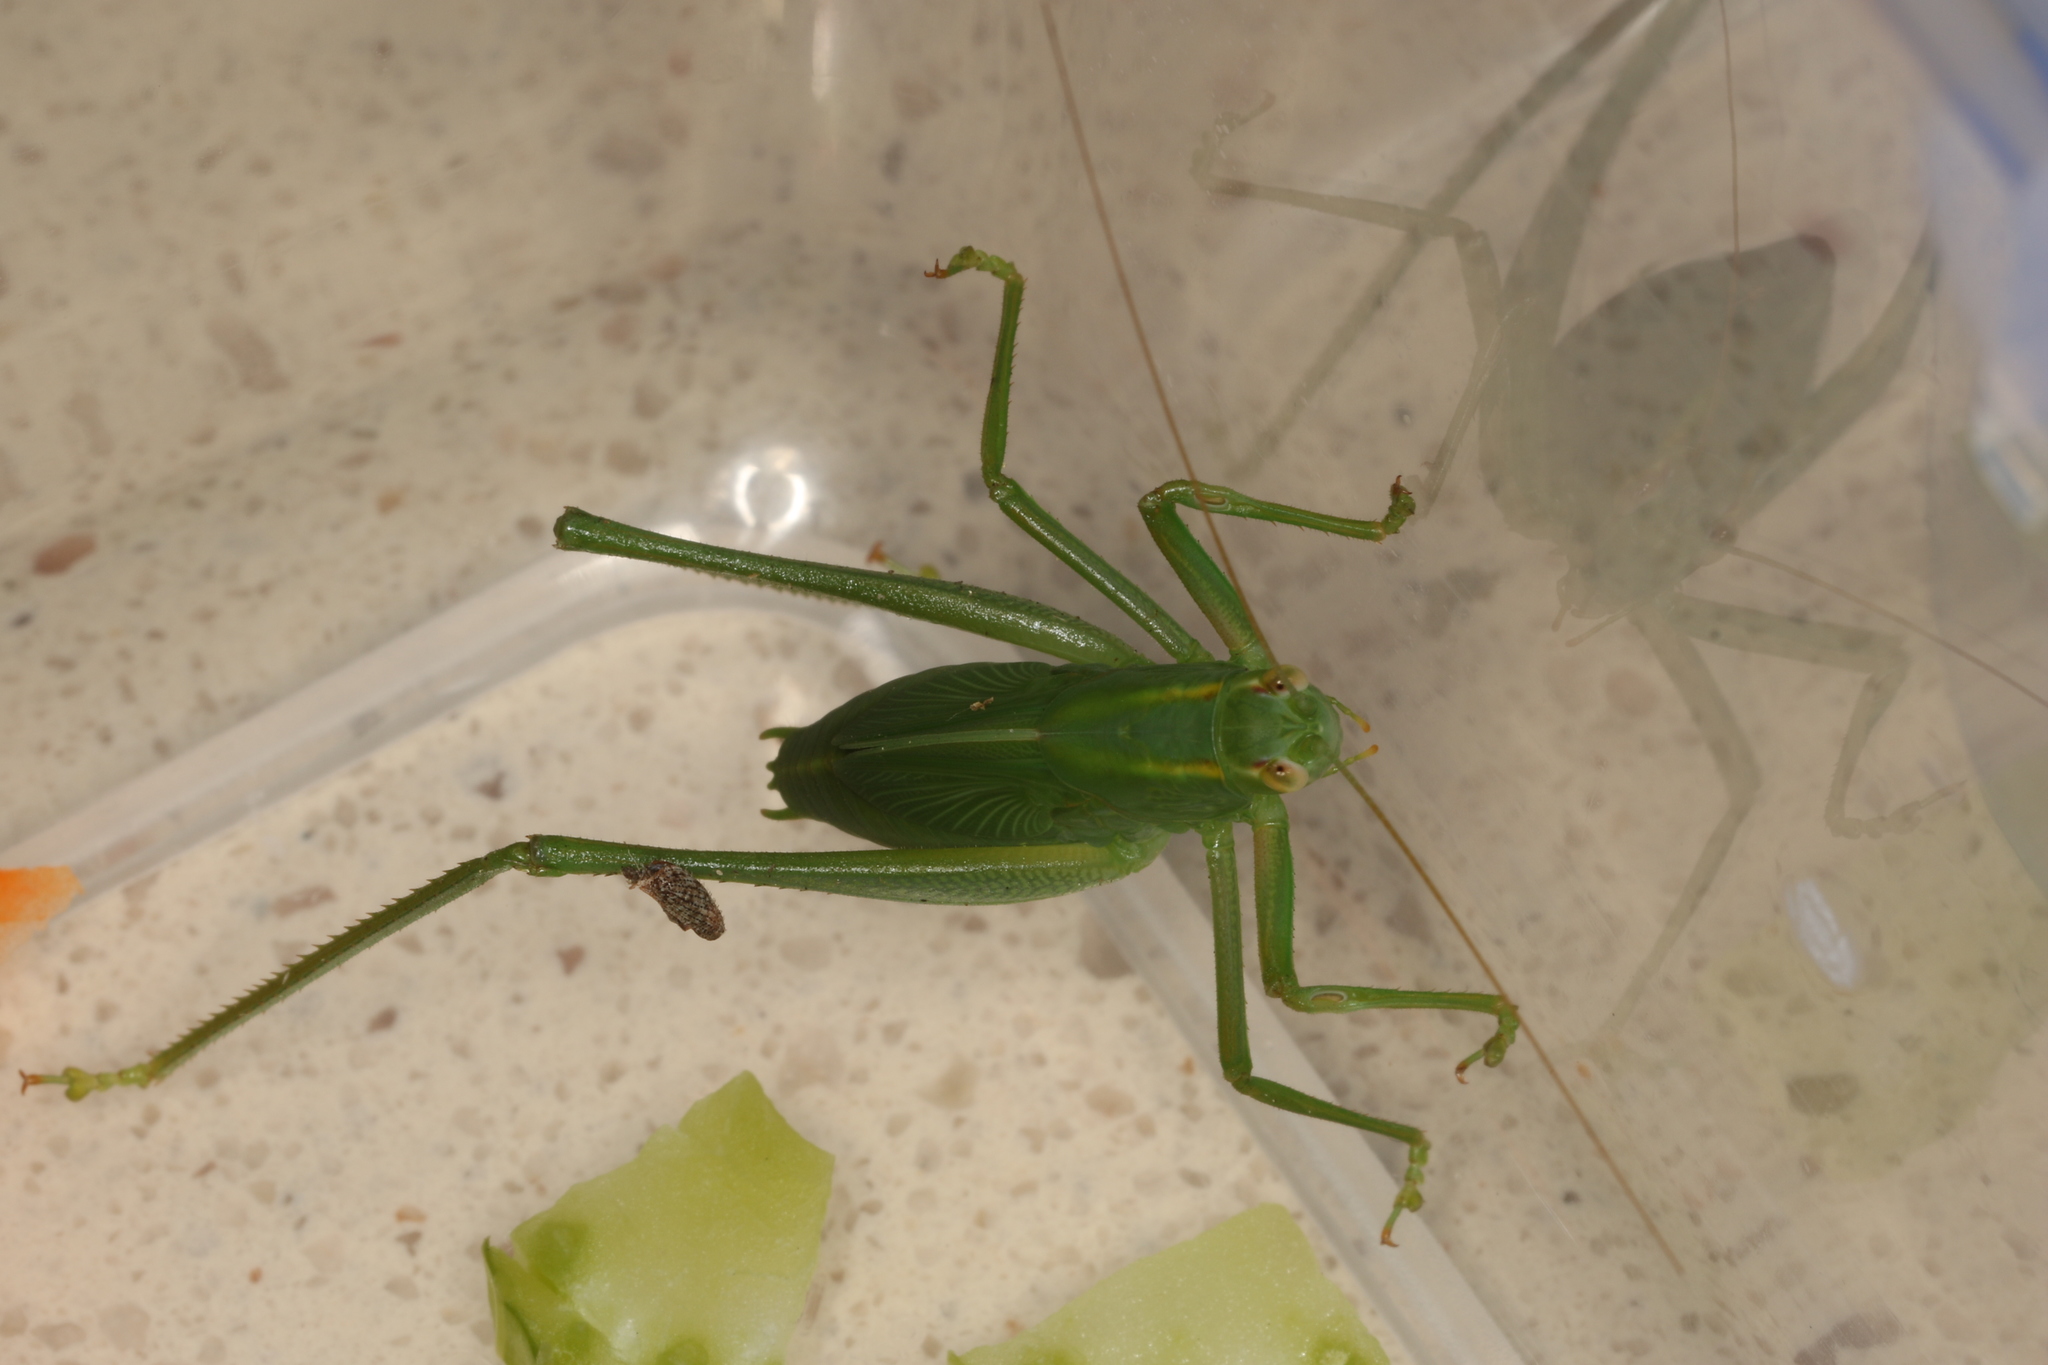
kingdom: Animalia
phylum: Arthropoda
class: Insecta
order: Orthoptera
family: Tettigoniidae
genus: Caedicia
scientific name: Caedicia simplex
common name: Common garden katydid
